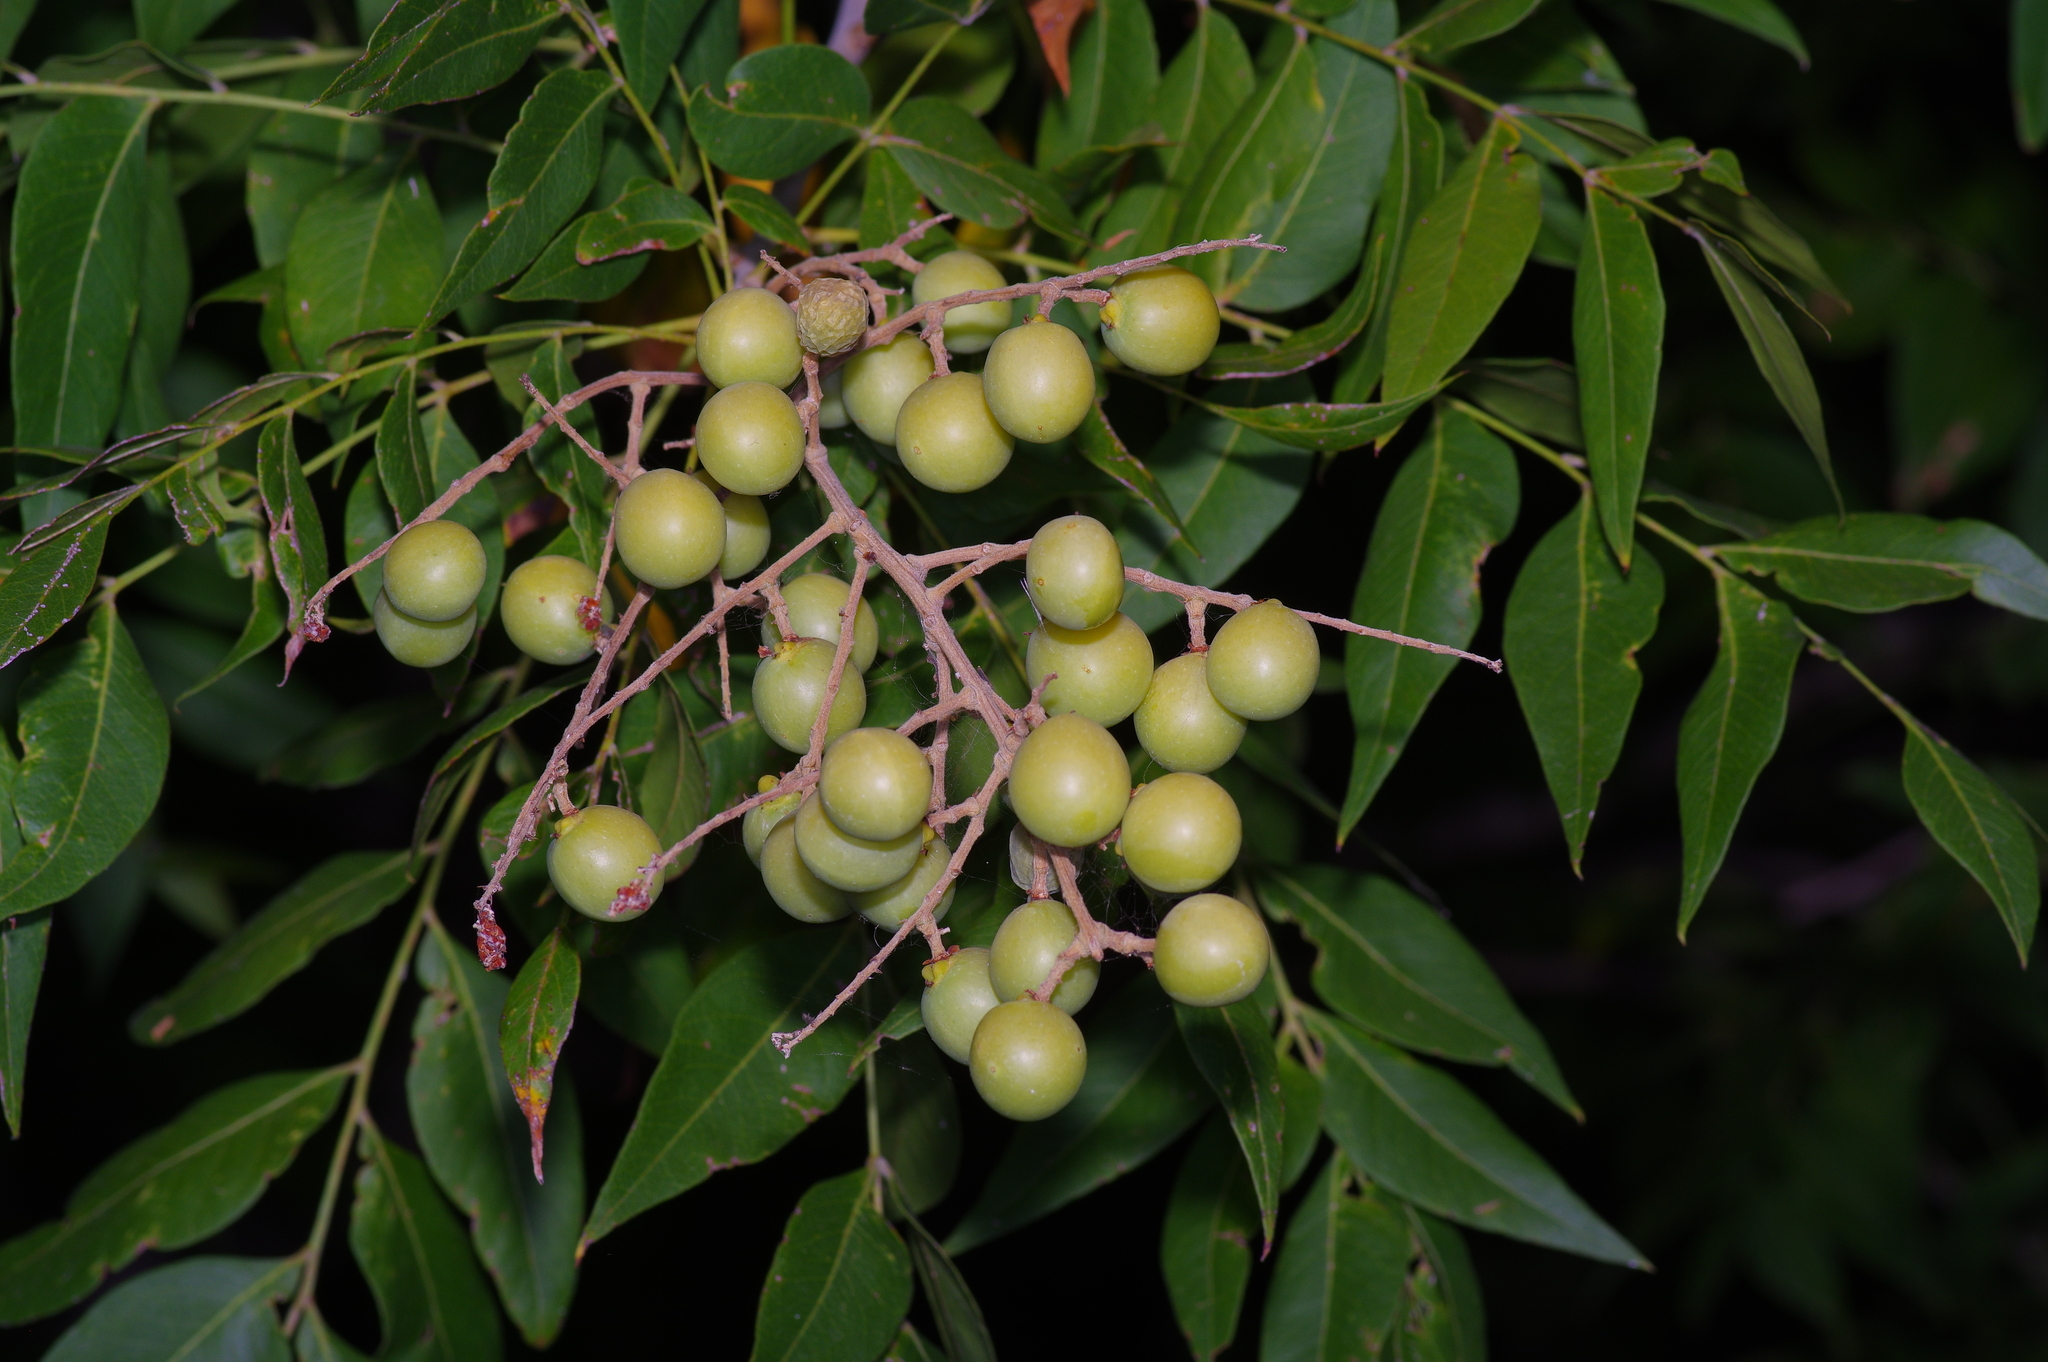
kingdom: Plantae
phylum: Tracheophyta
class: Magnoliopsida
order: Sapindales
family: Sapindaceae
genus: Sapindus
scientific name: Sapindus drummondii
